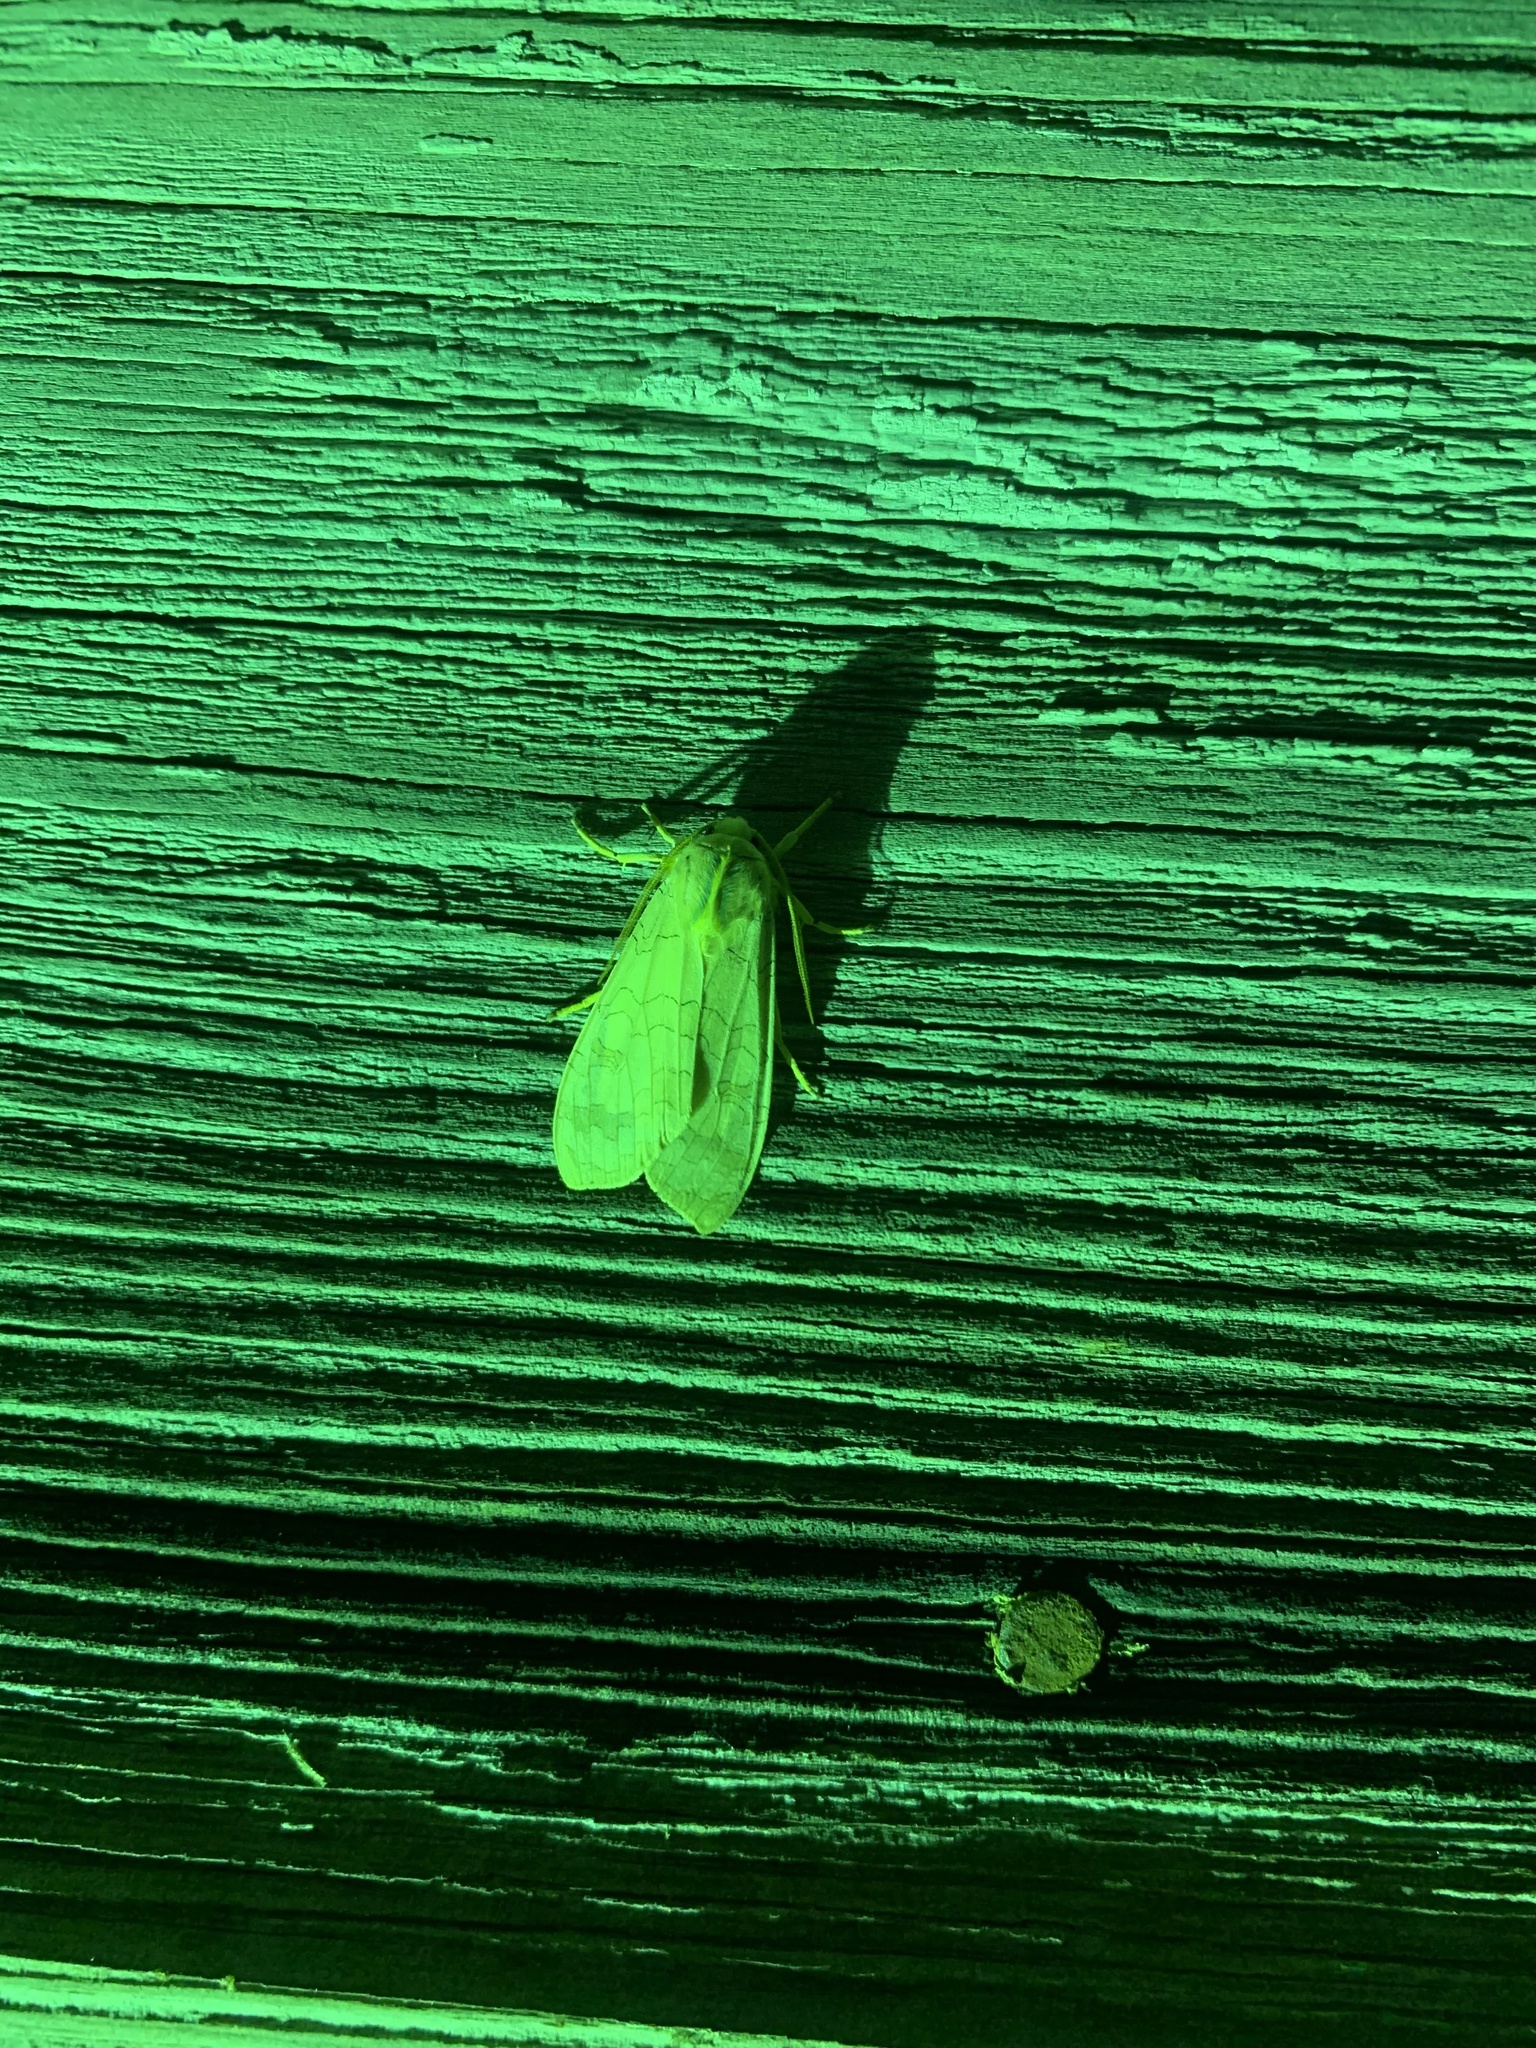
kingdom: Animalia
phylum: Arthropoda
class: Insecta
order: Lepidoptera
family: Erebidae
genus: Halysidota
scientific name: Halysidota
